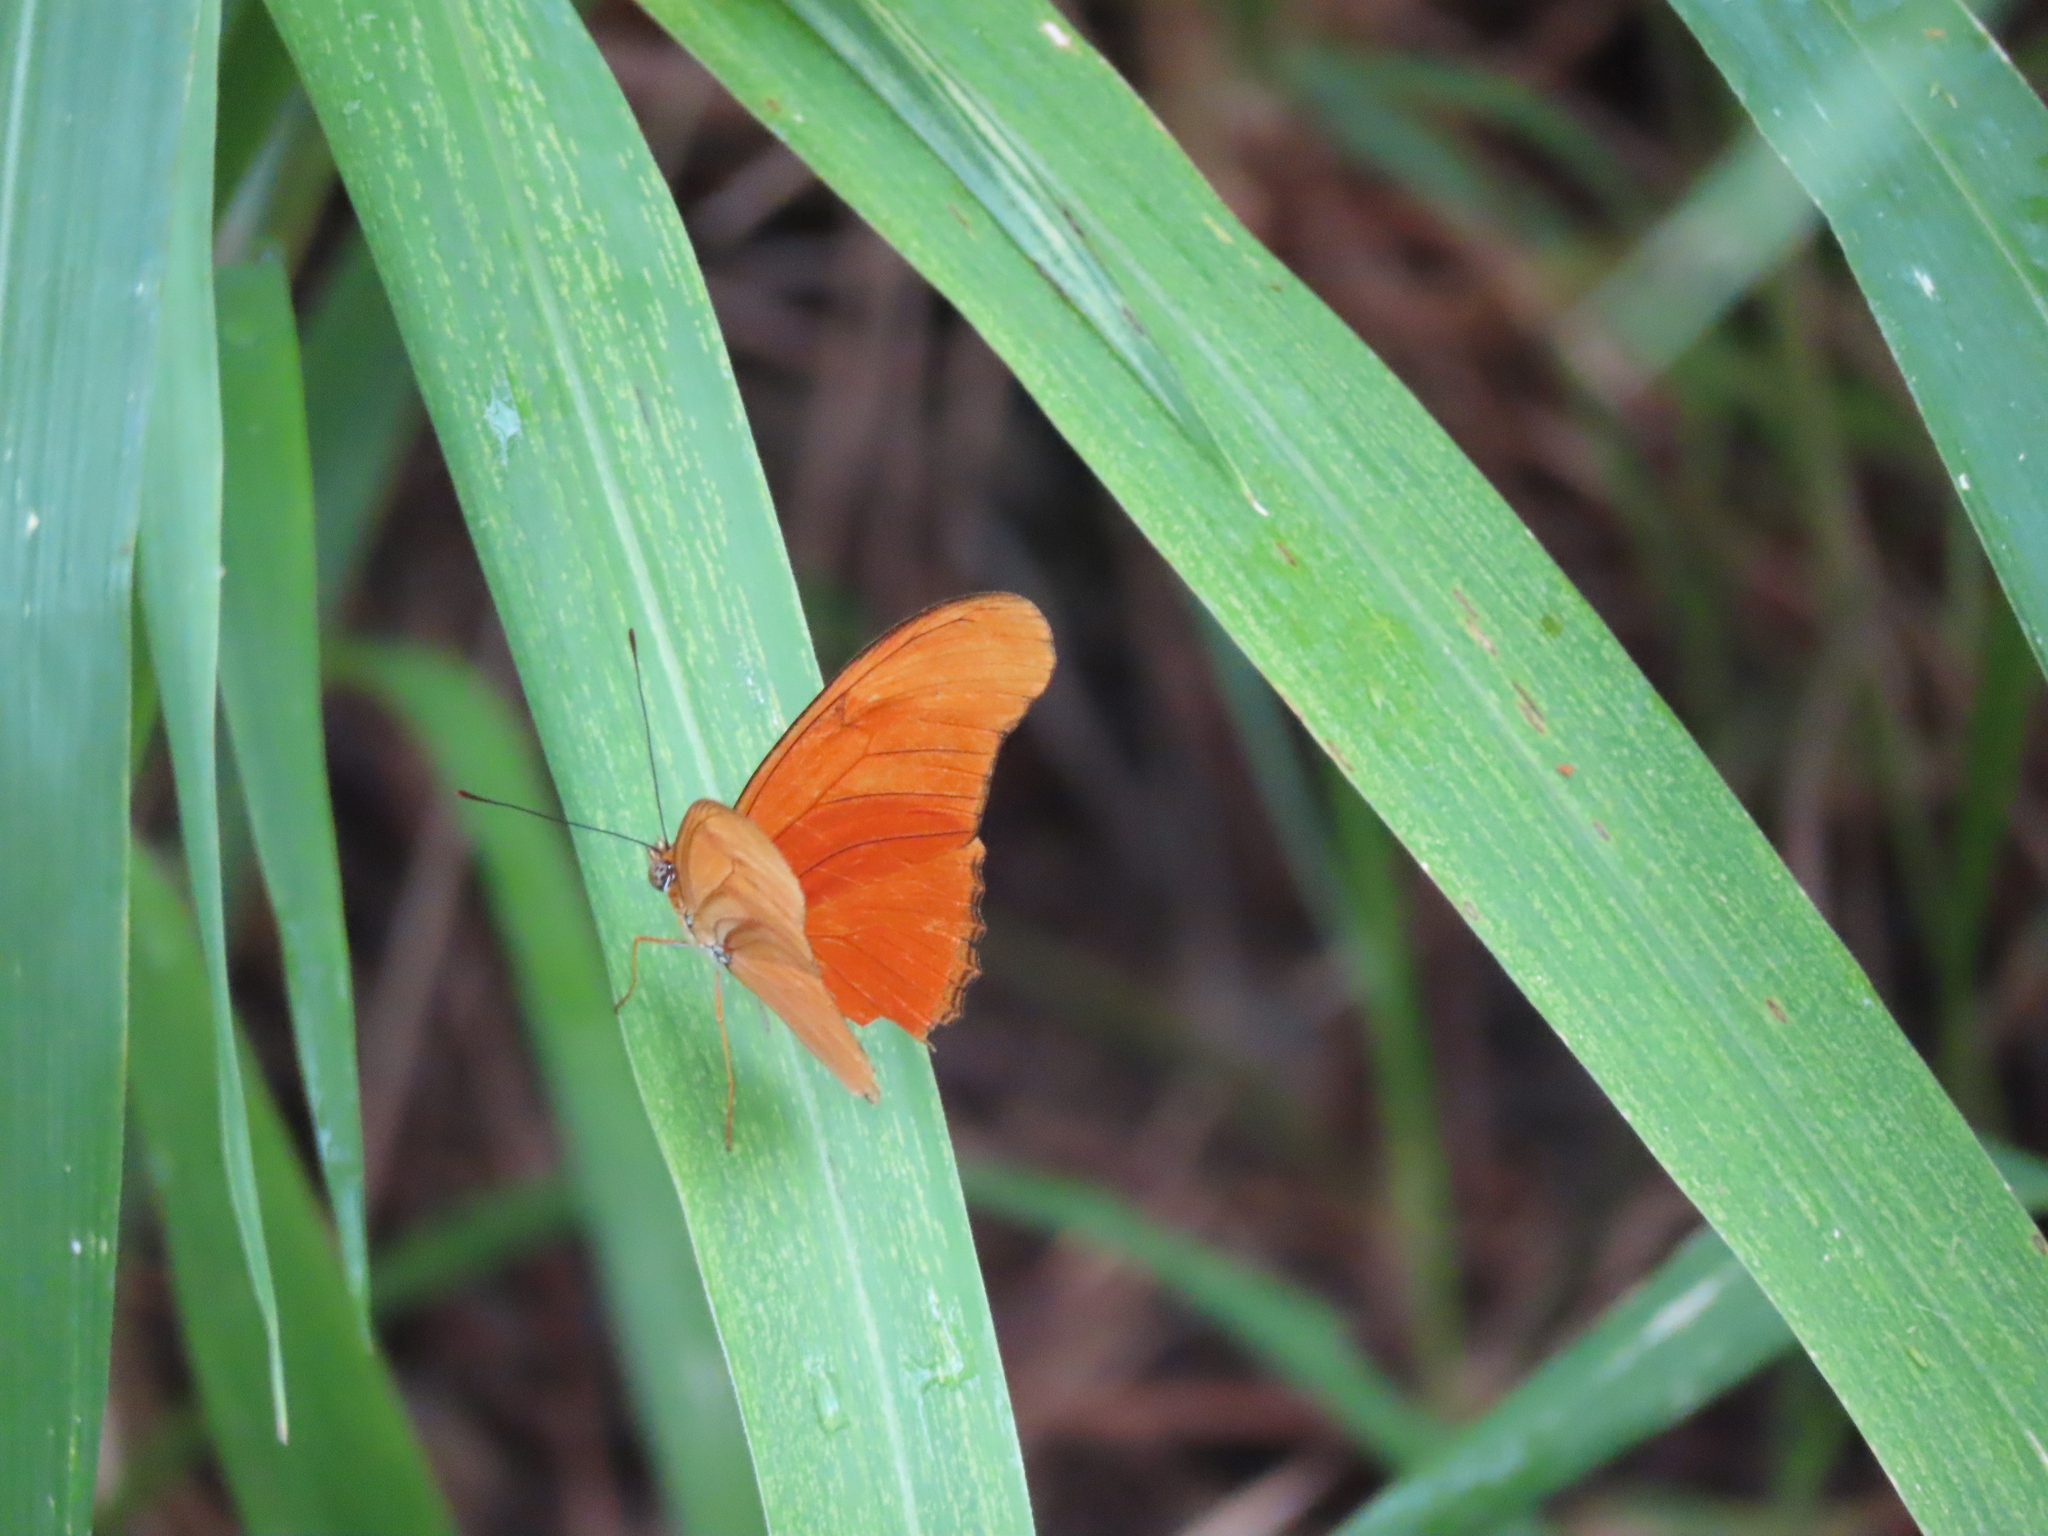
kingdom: Animalia
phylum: Arthropoda
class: Insecta
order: Lepidoptera
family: Nymphalidae
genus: Dryas
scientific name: Dryas iulia
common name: Flambeau
